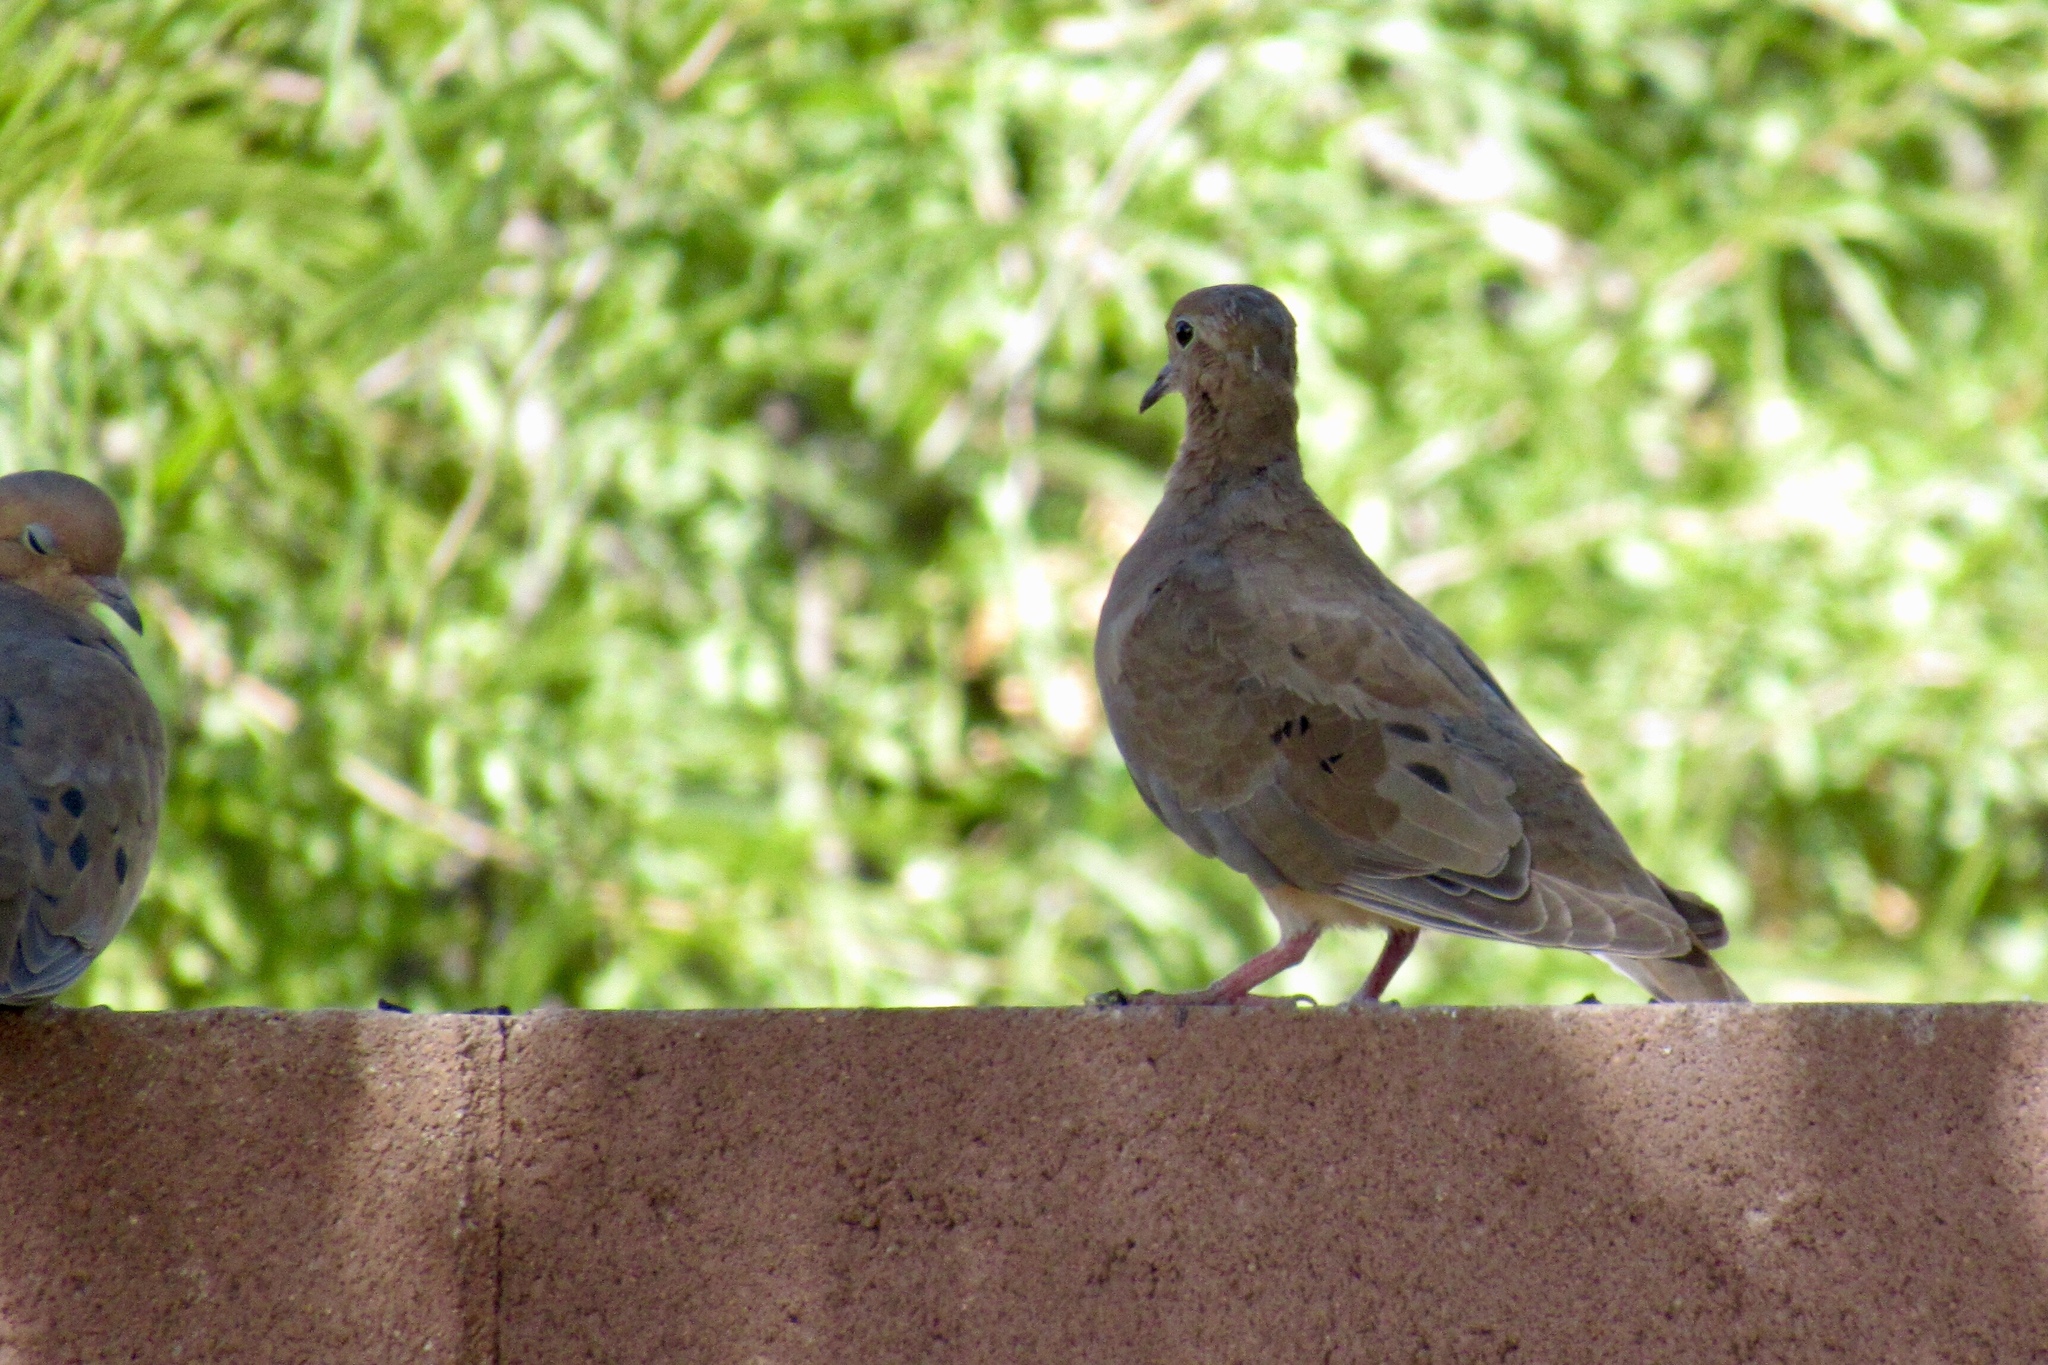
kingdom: Animalia
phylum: Chordata
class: Aves
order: Columbiformes
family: Columbidae
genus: Zenaida
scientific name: Zenaida macroura
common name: Mourning dove
